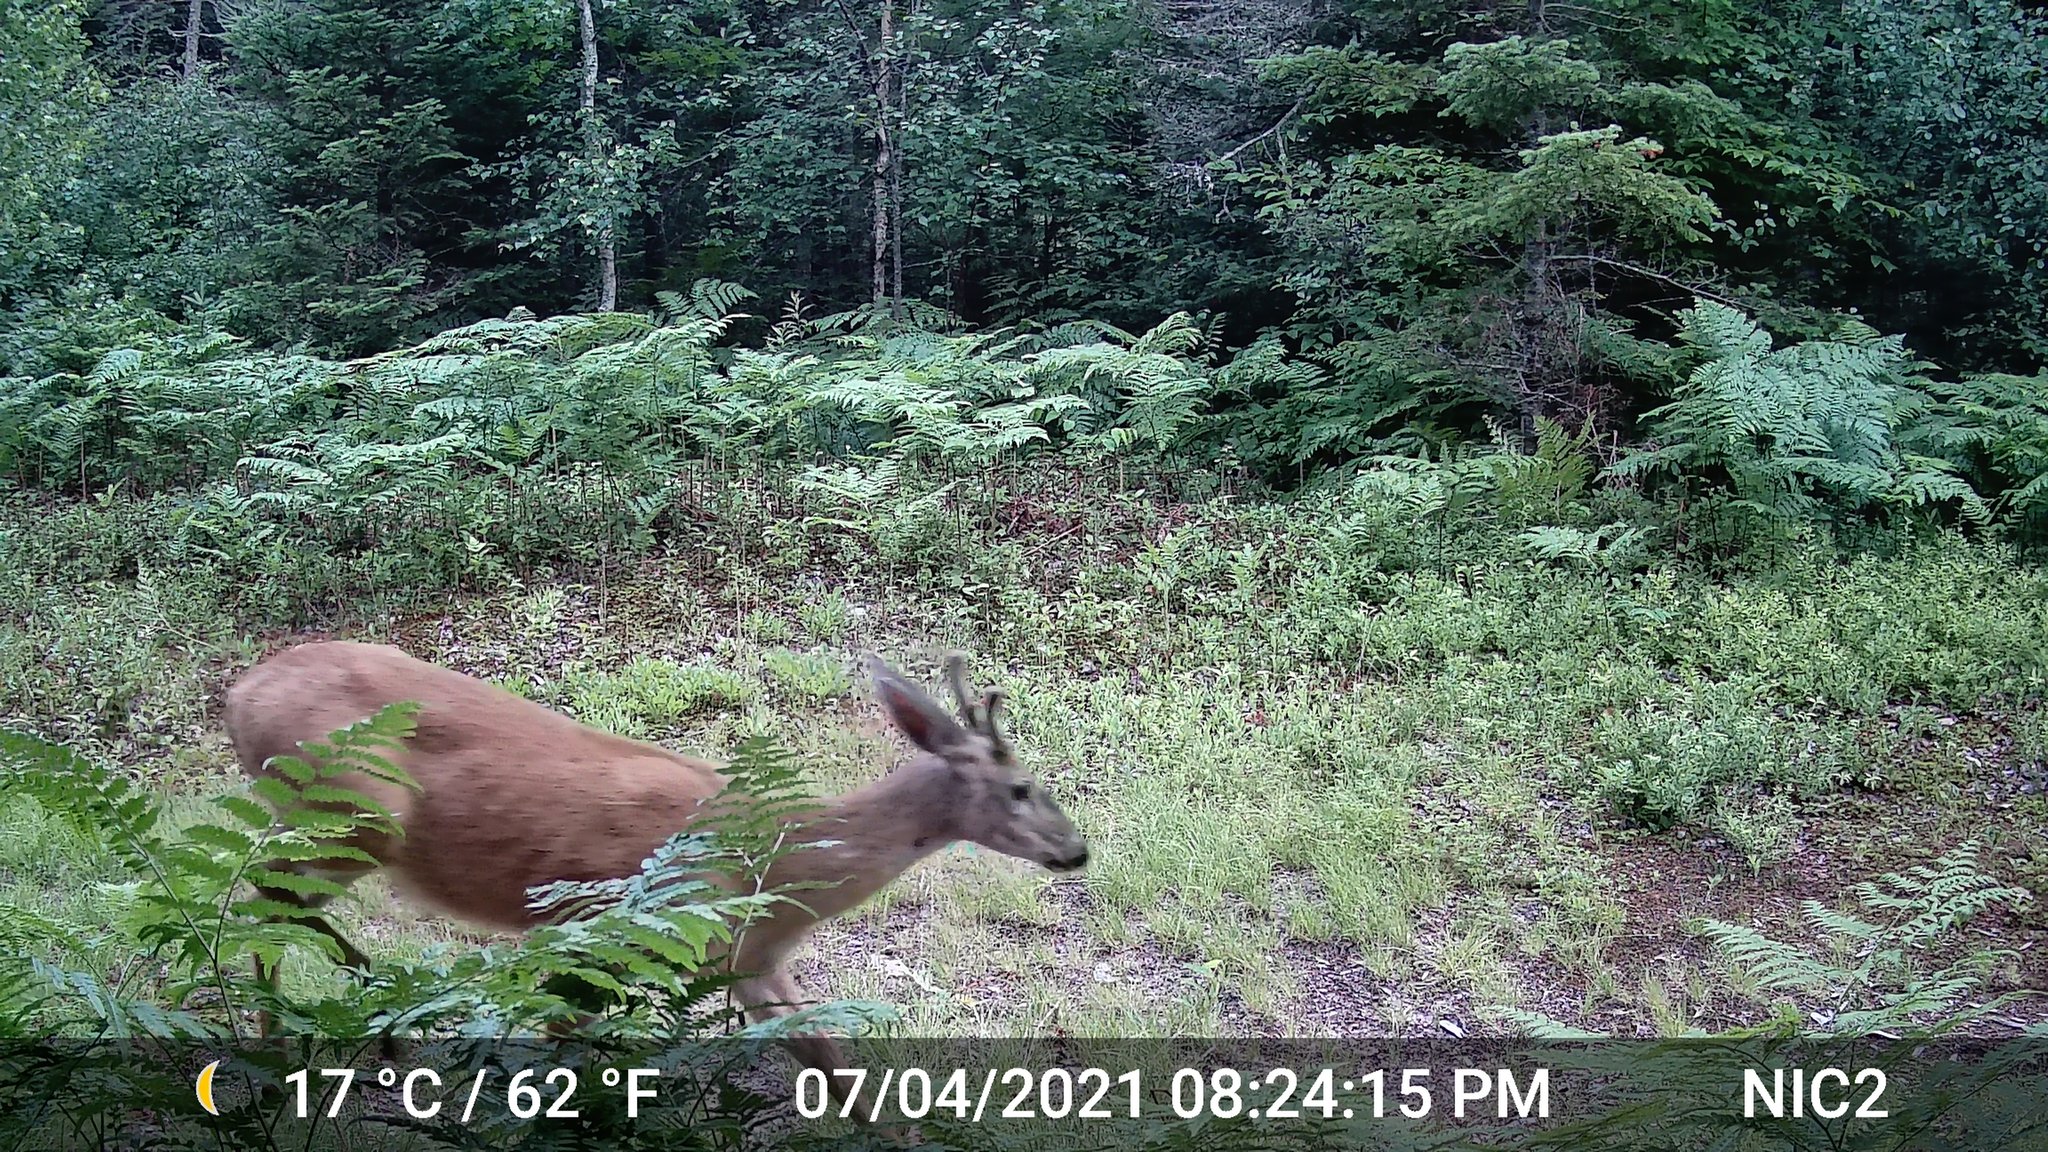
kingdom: Animalia
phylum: Chordata
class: Mammalia
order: Artiodactyla
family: Cervidae
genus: Odocoileus
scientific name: Odocoileus virginianus
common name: White-tailed deer
